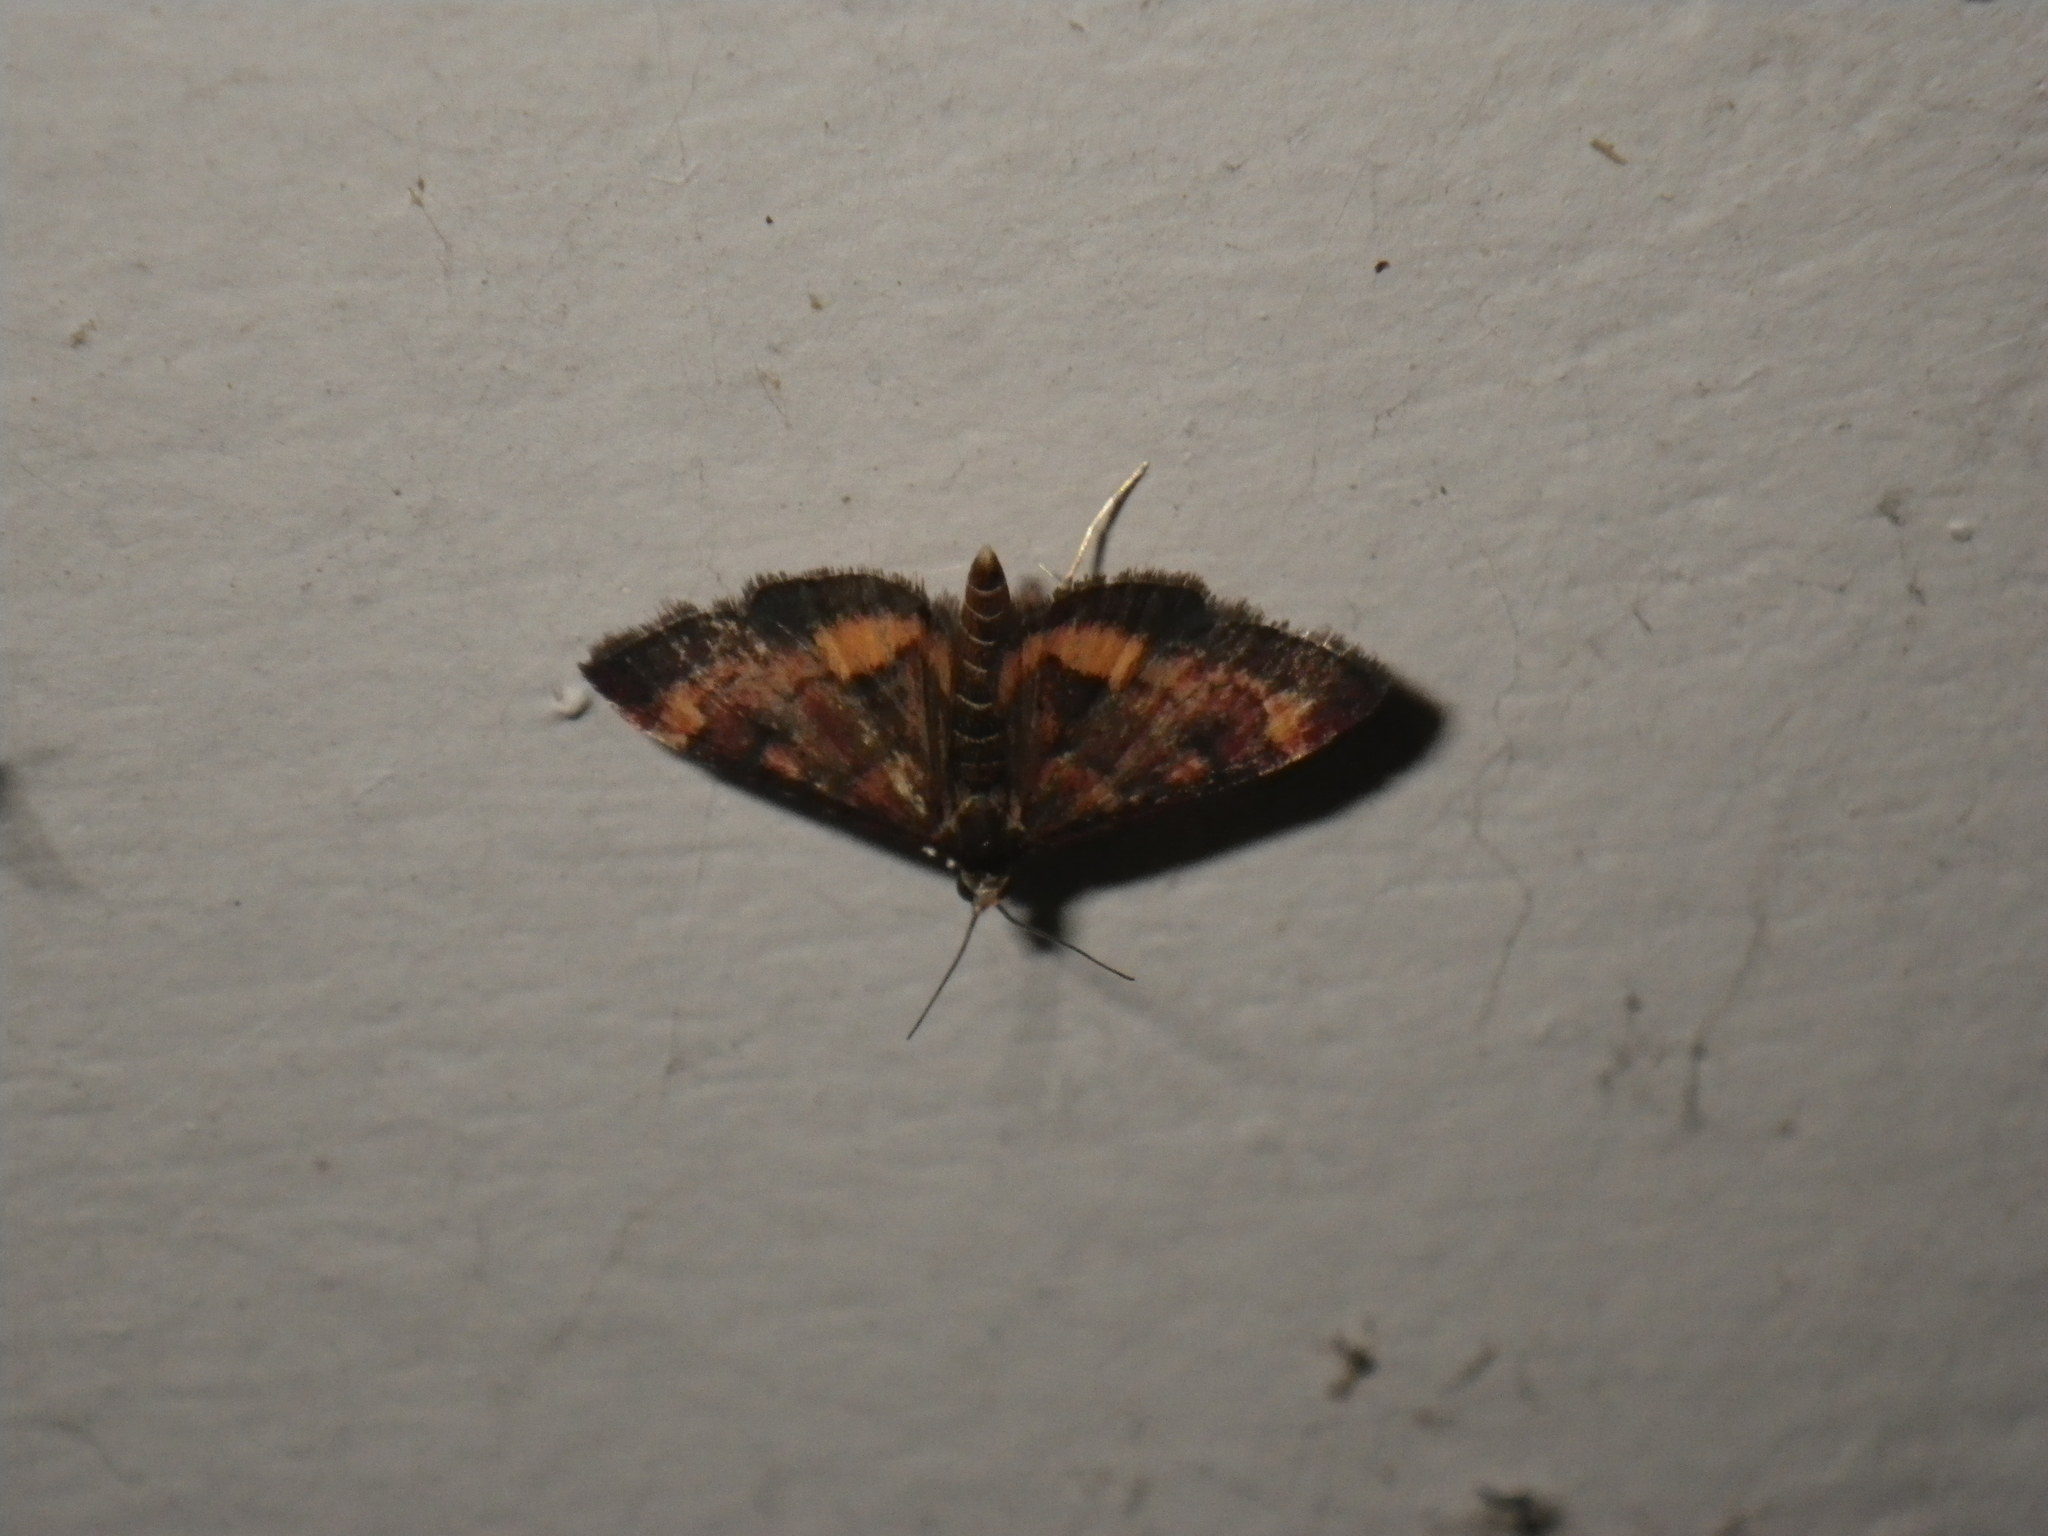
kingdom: Animalia
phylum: Arthropoda
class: Insecta
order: Lepidoptera
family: Crambidae
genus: Pyrausta
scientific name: Pyrausta californicalis
